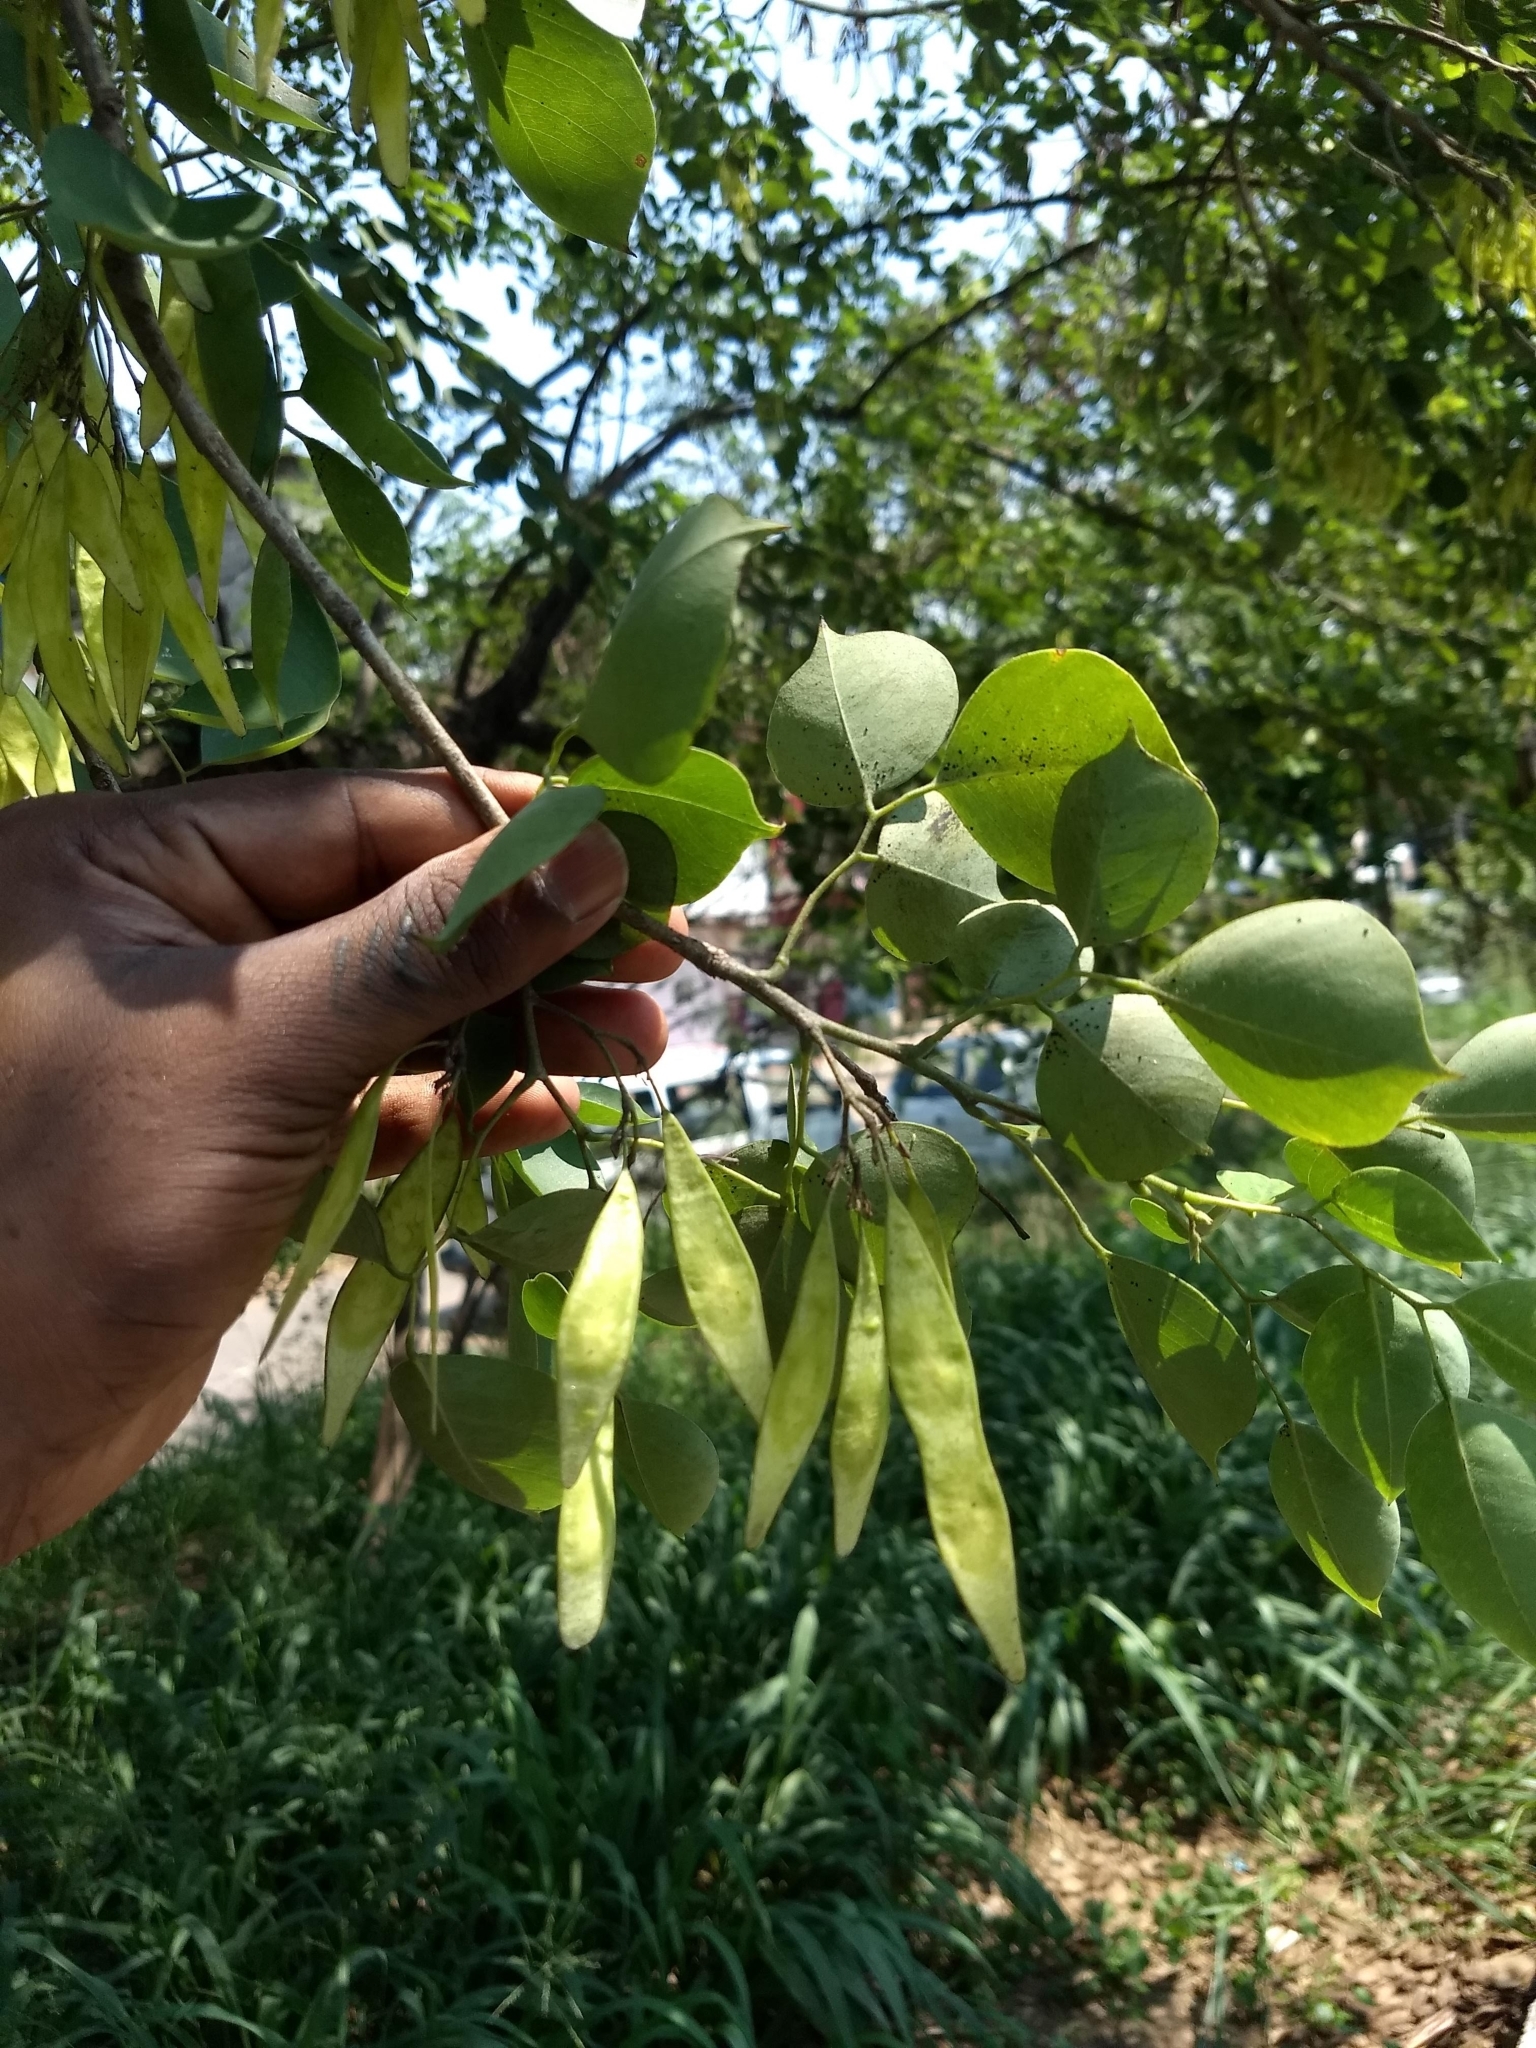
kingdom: Plantae
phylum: Tracheophyta
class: Magnoliopsida
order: Fabales
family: Fabaceae
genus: Dalbergia
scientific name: Dalbergia sissoo
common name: Indian rosewood
